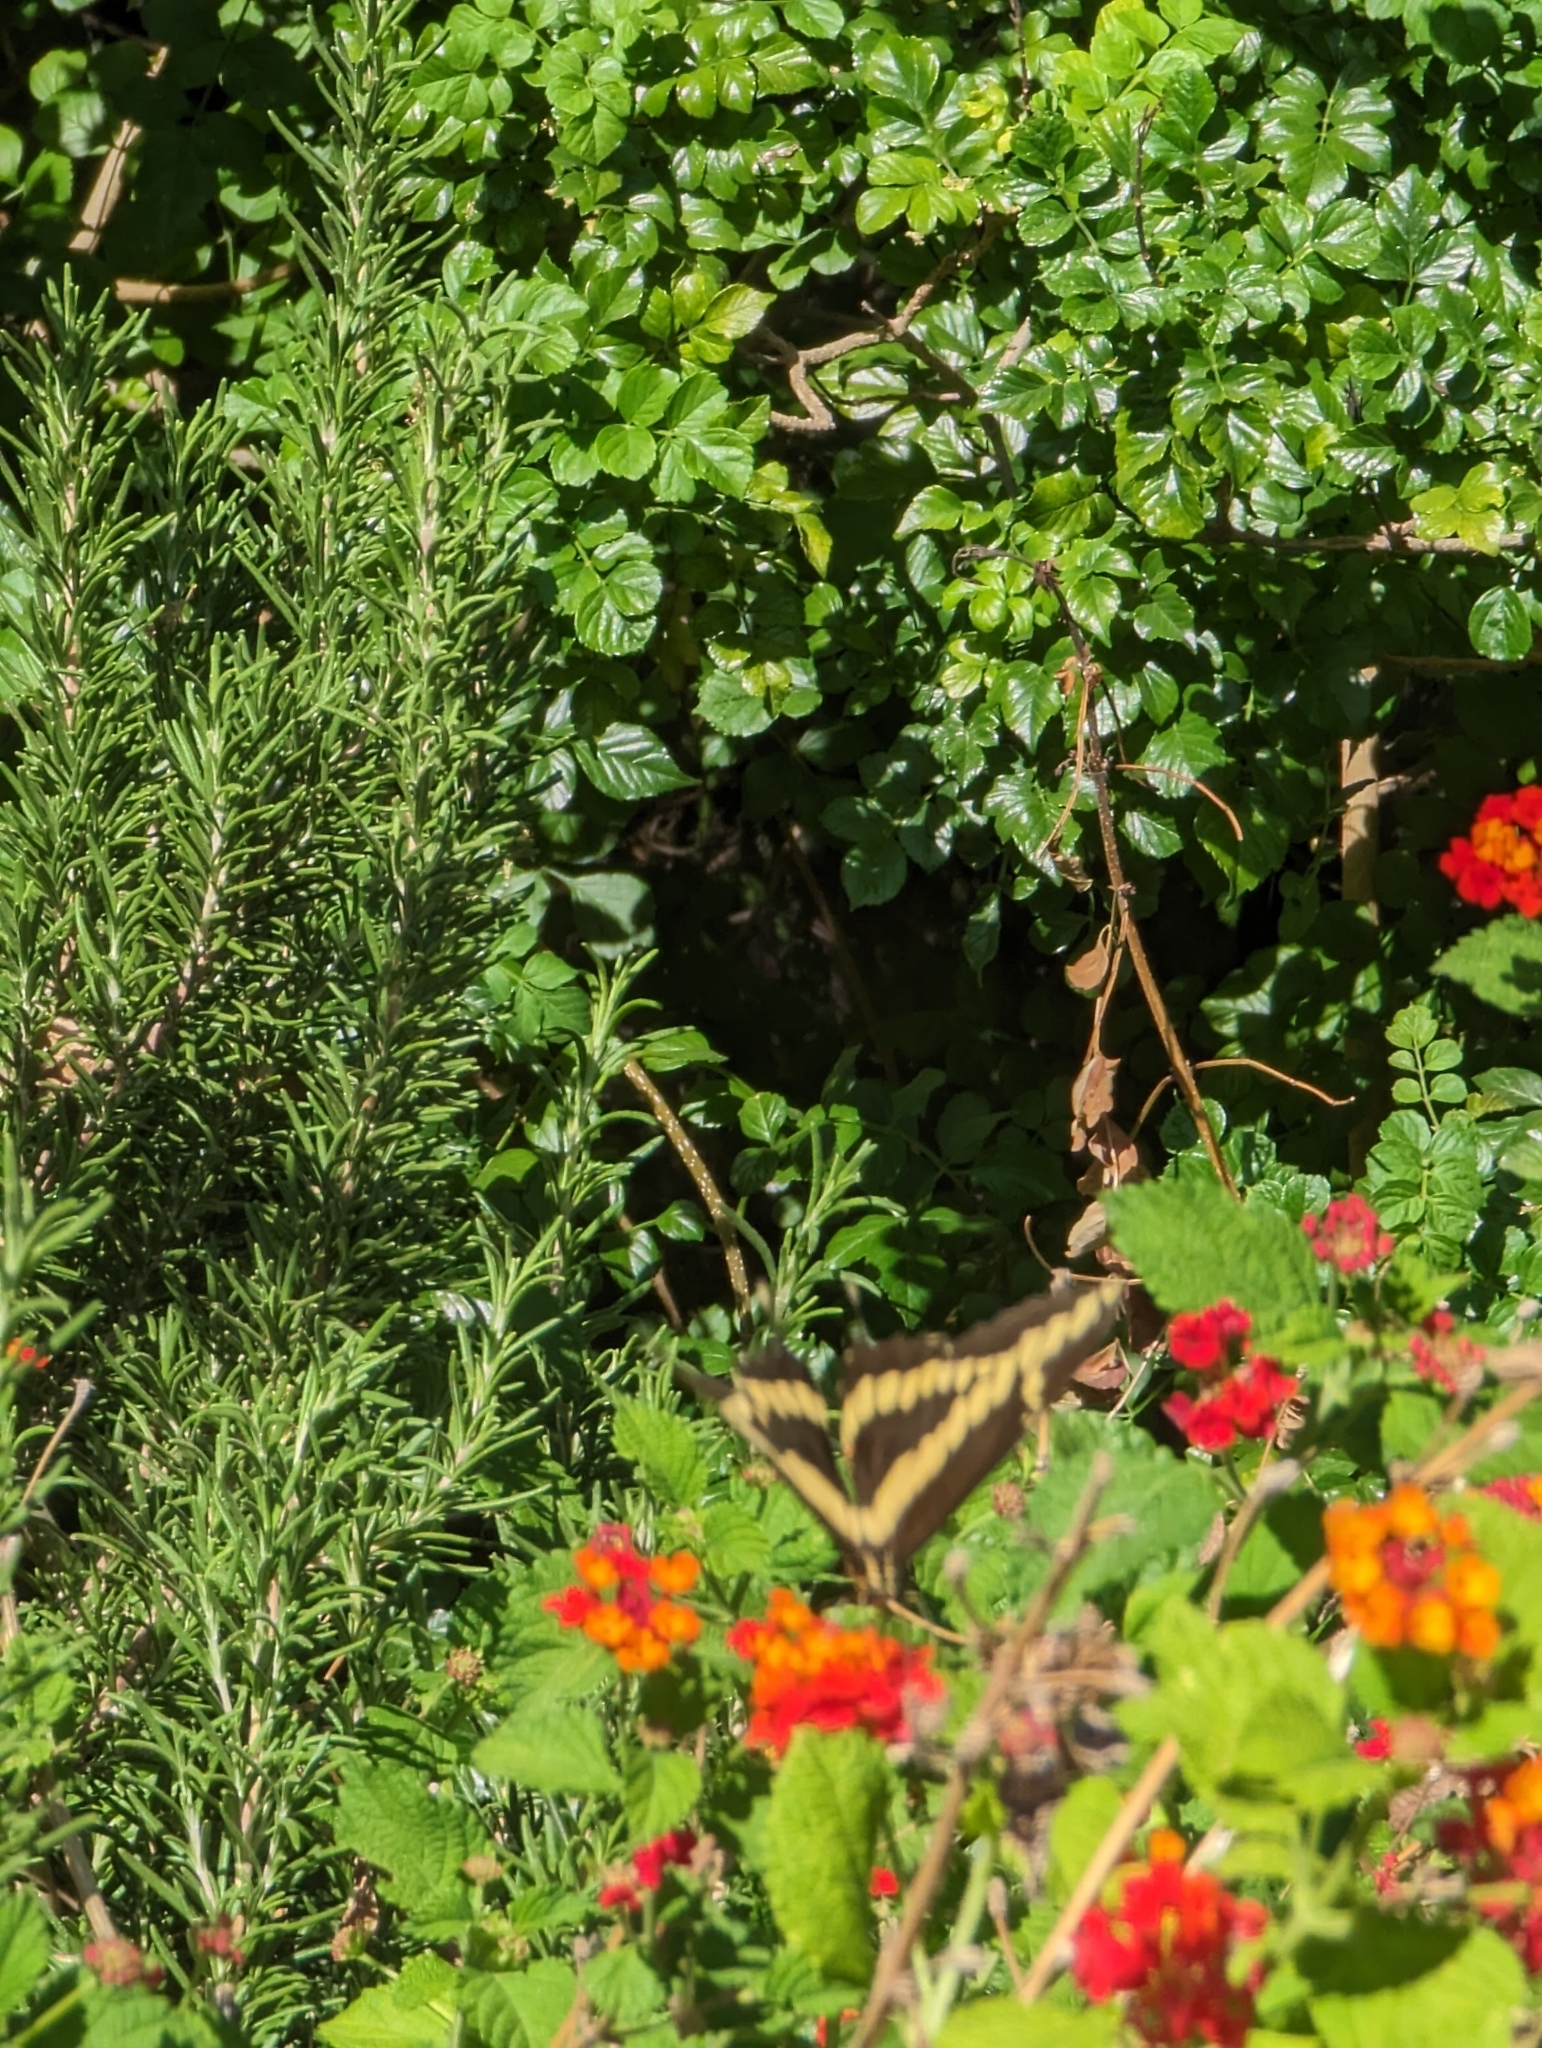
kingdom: Animalia
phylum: Arthropoda
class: Insecta
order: Lepidoptera
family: Papilionidae
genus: Papilio
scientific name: Papilio rumiko
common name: Western giant swallowtail
